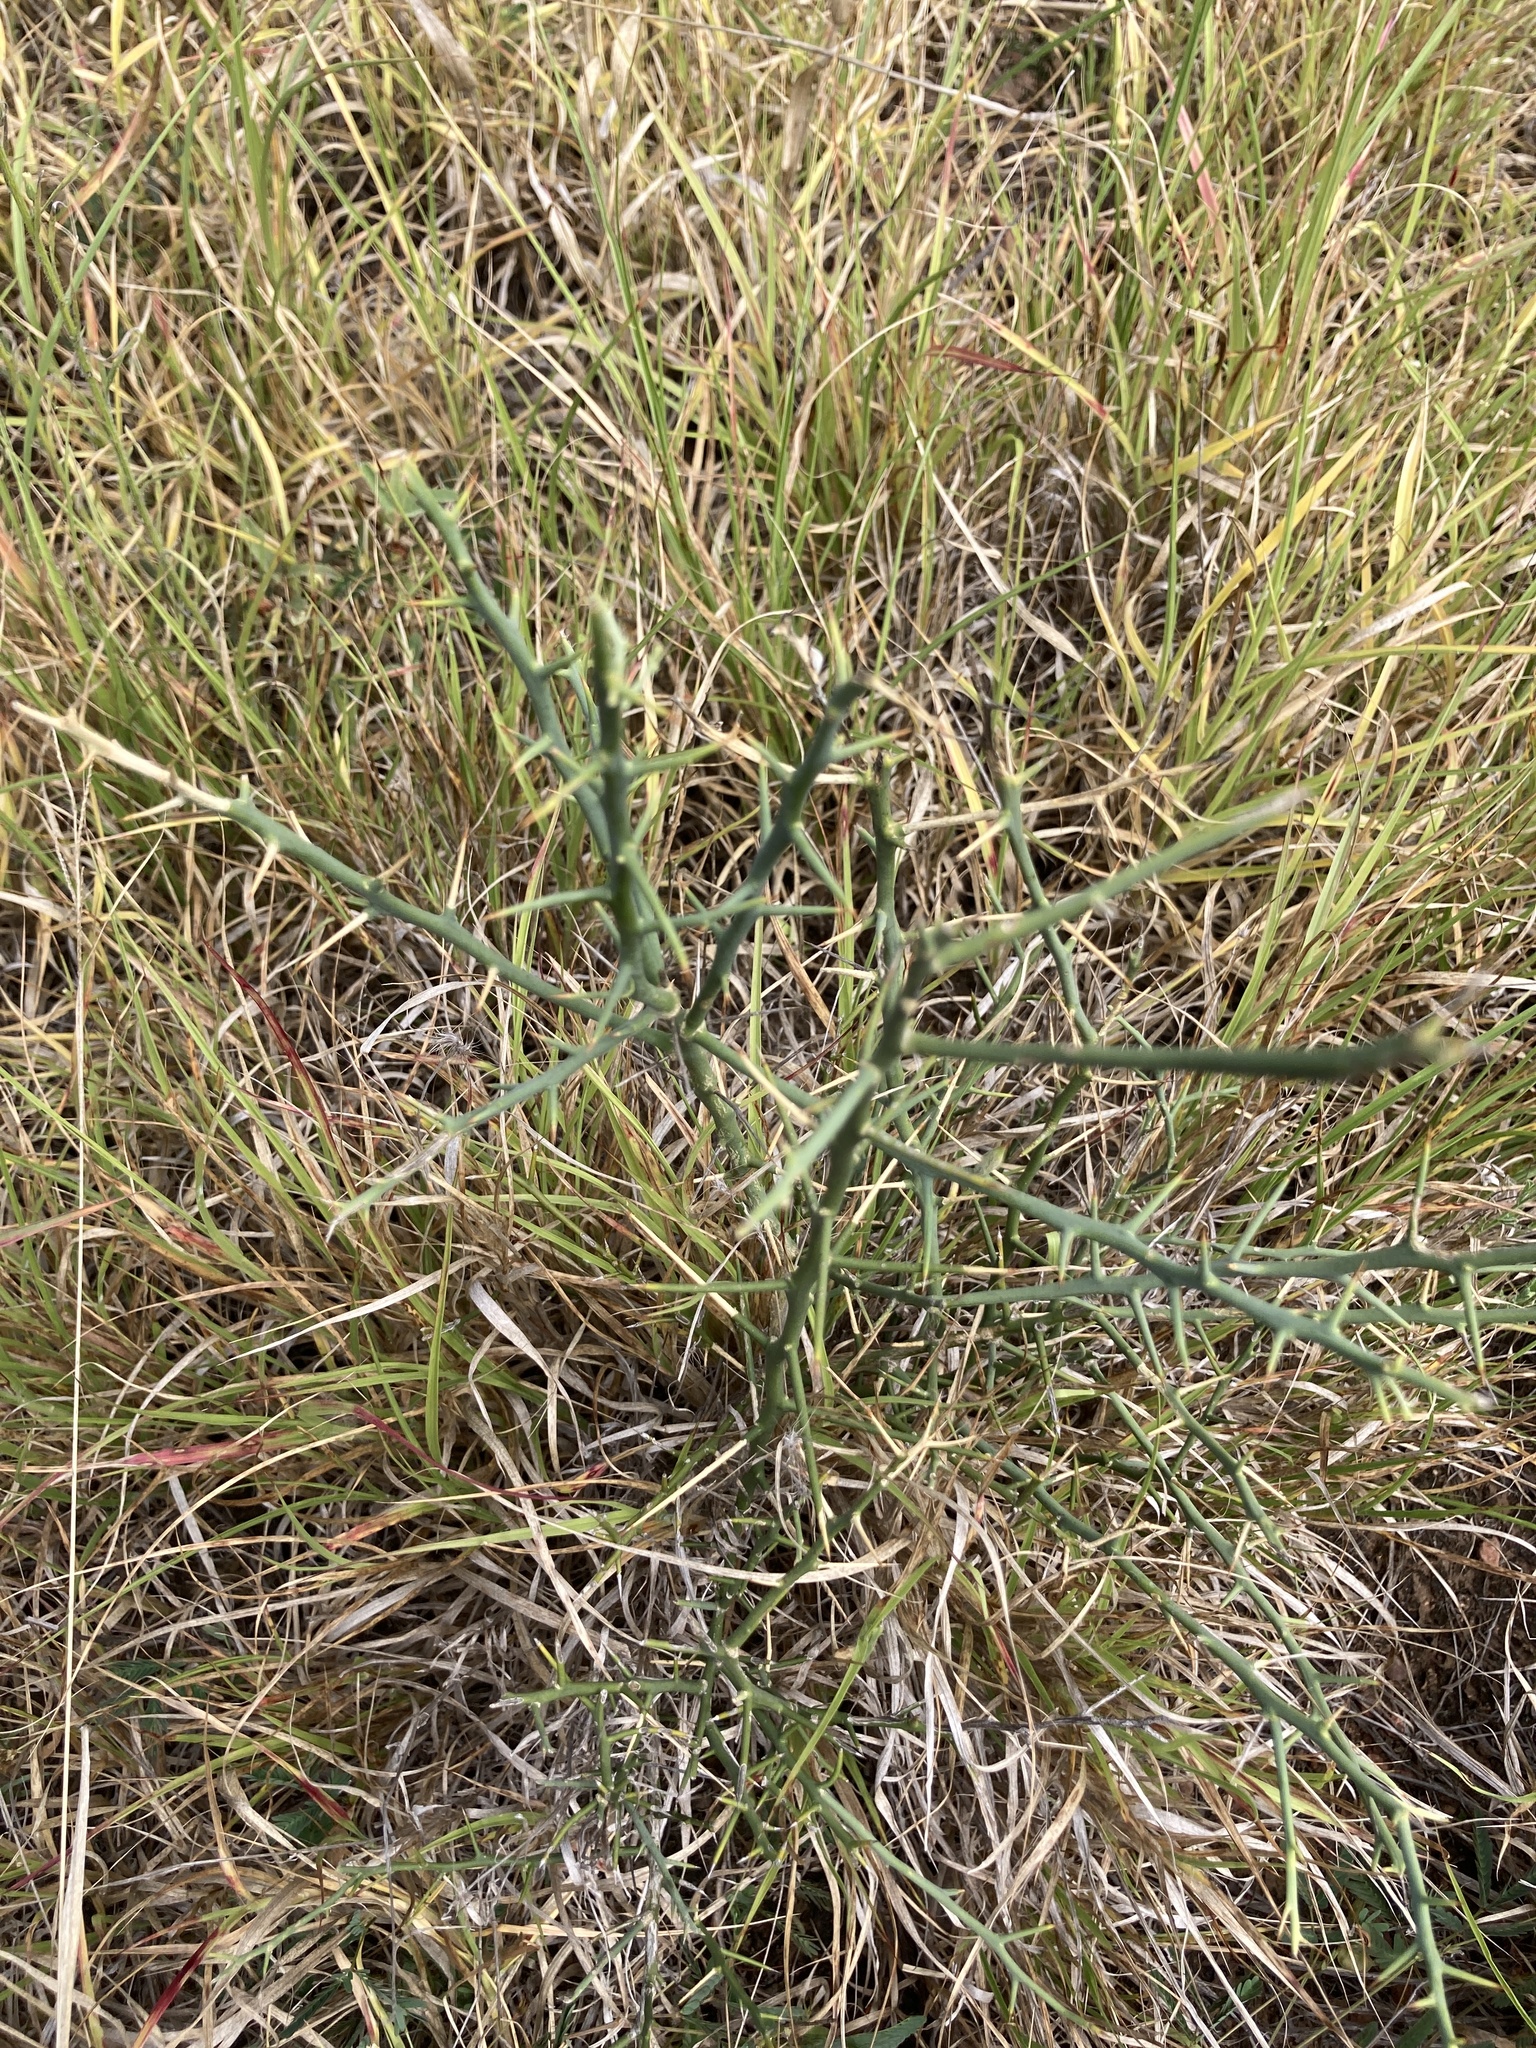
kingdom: Plantae
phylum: Tracheophyta
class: Magnoliopsida
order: Sapindales
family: Rutaceae
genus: Eremocitrus
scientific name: Eremocitrus glauca
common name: Australian desert-lime
